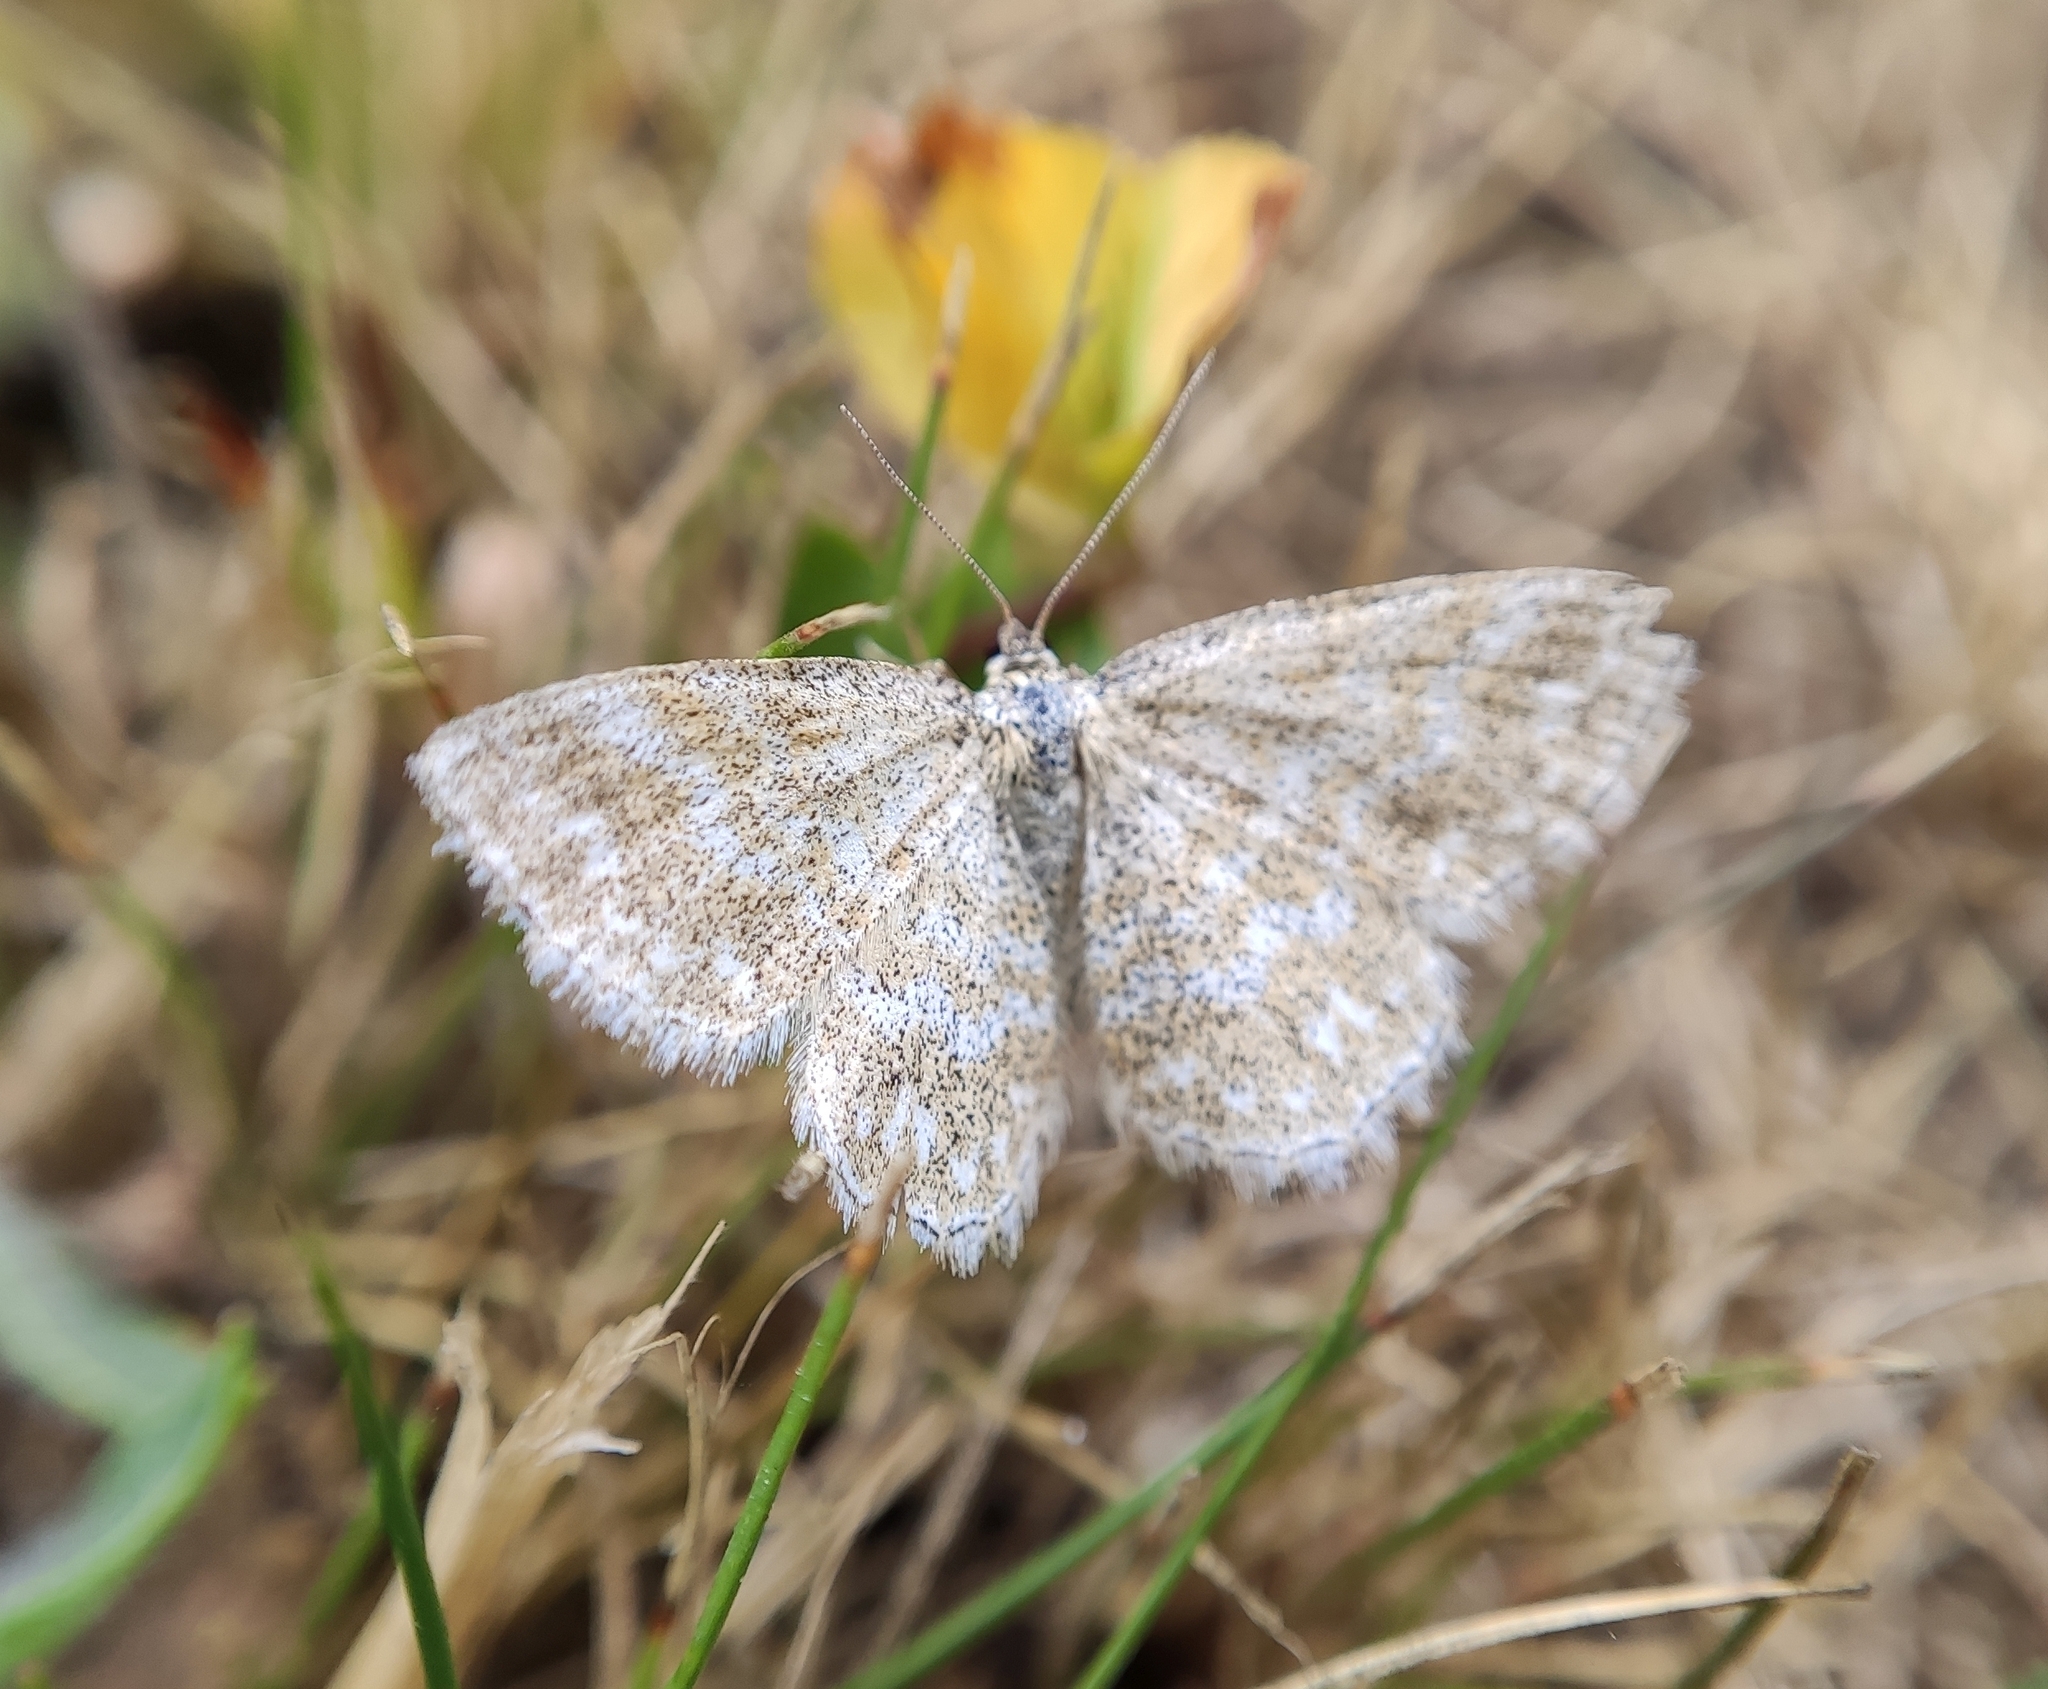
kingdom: Animalia
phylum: Arthropoda
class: Insecta
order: Lepidoptera
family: Geometridae
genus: Scopula
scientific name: Scopula immorata
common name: Lewes wave
